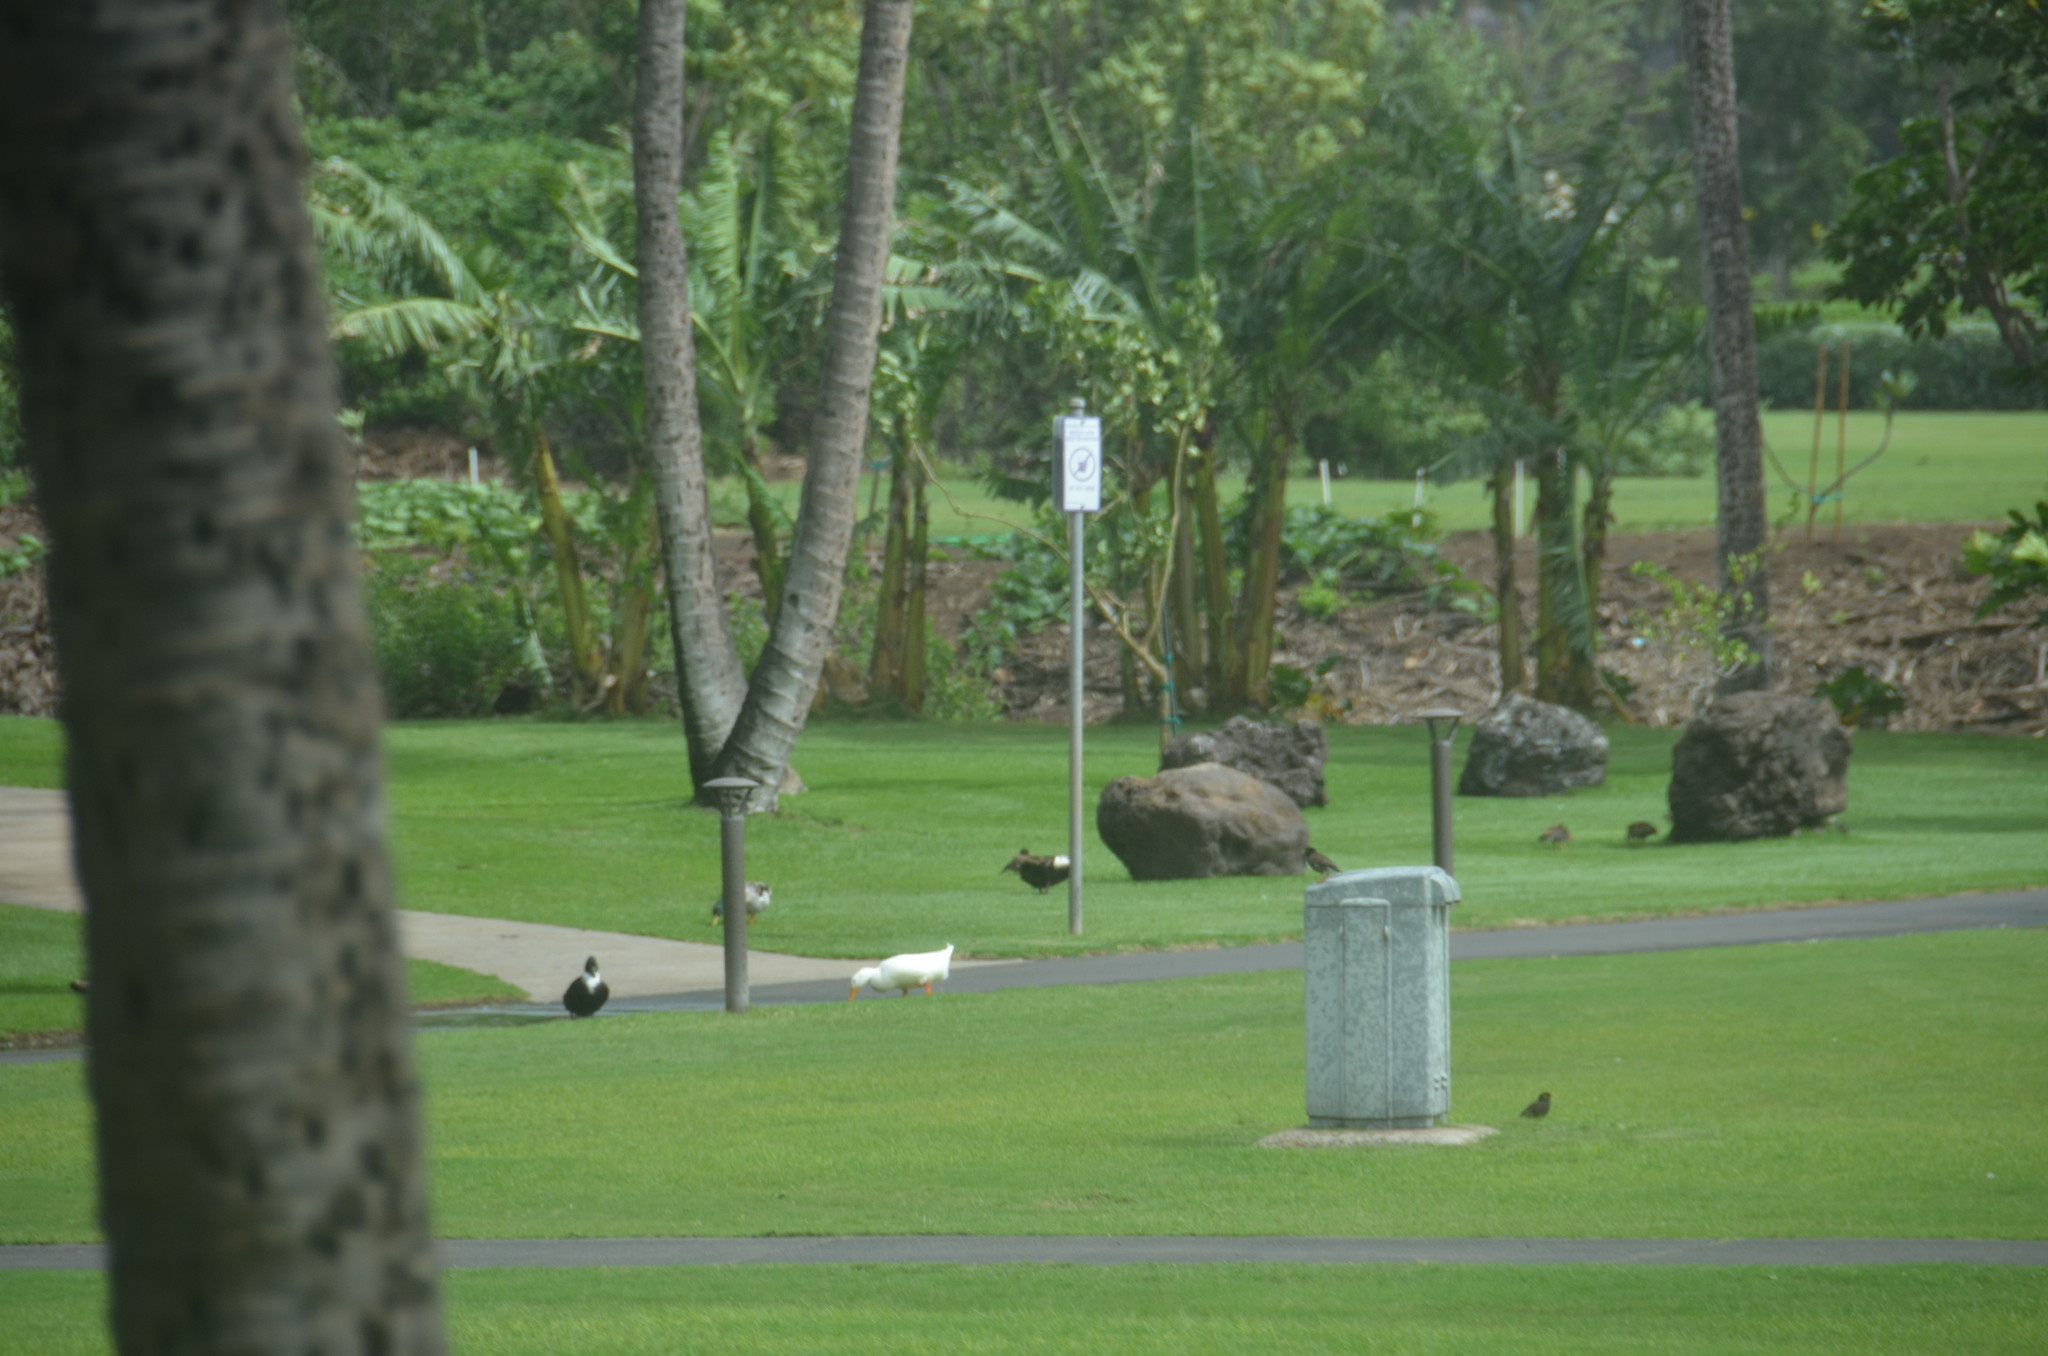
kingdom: Animalia
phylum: Chordata
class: Aves
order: Anseriformes
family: Anatidae
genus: Anas
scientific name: Anas platyrhynchos
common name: Mallard
